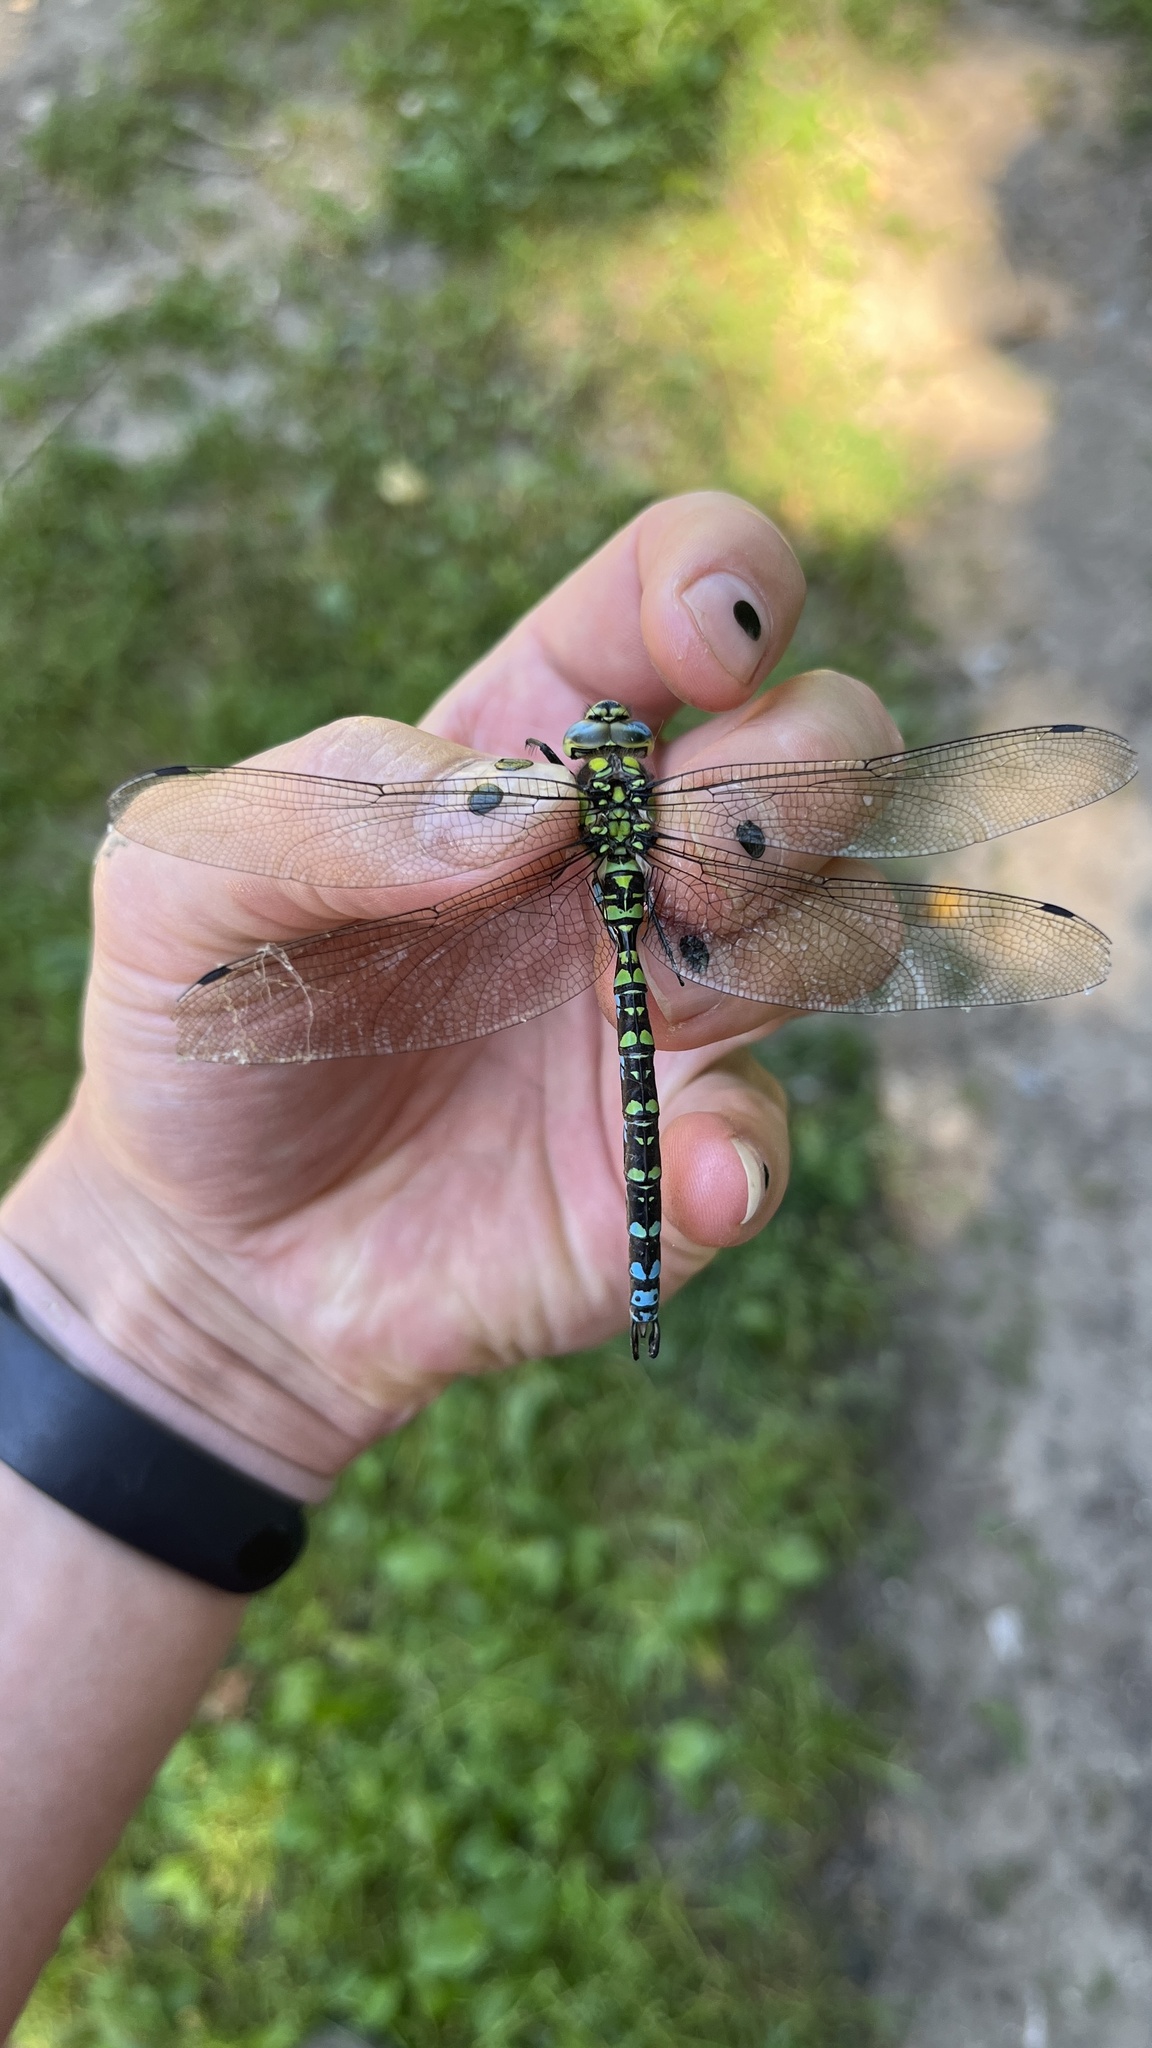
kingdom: Animalia
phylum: Arthropoda
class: Insecta
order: Odonata
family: Aeshnidae
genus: Aeshna
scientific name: Aeshna cyanea
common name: Southern hawker
